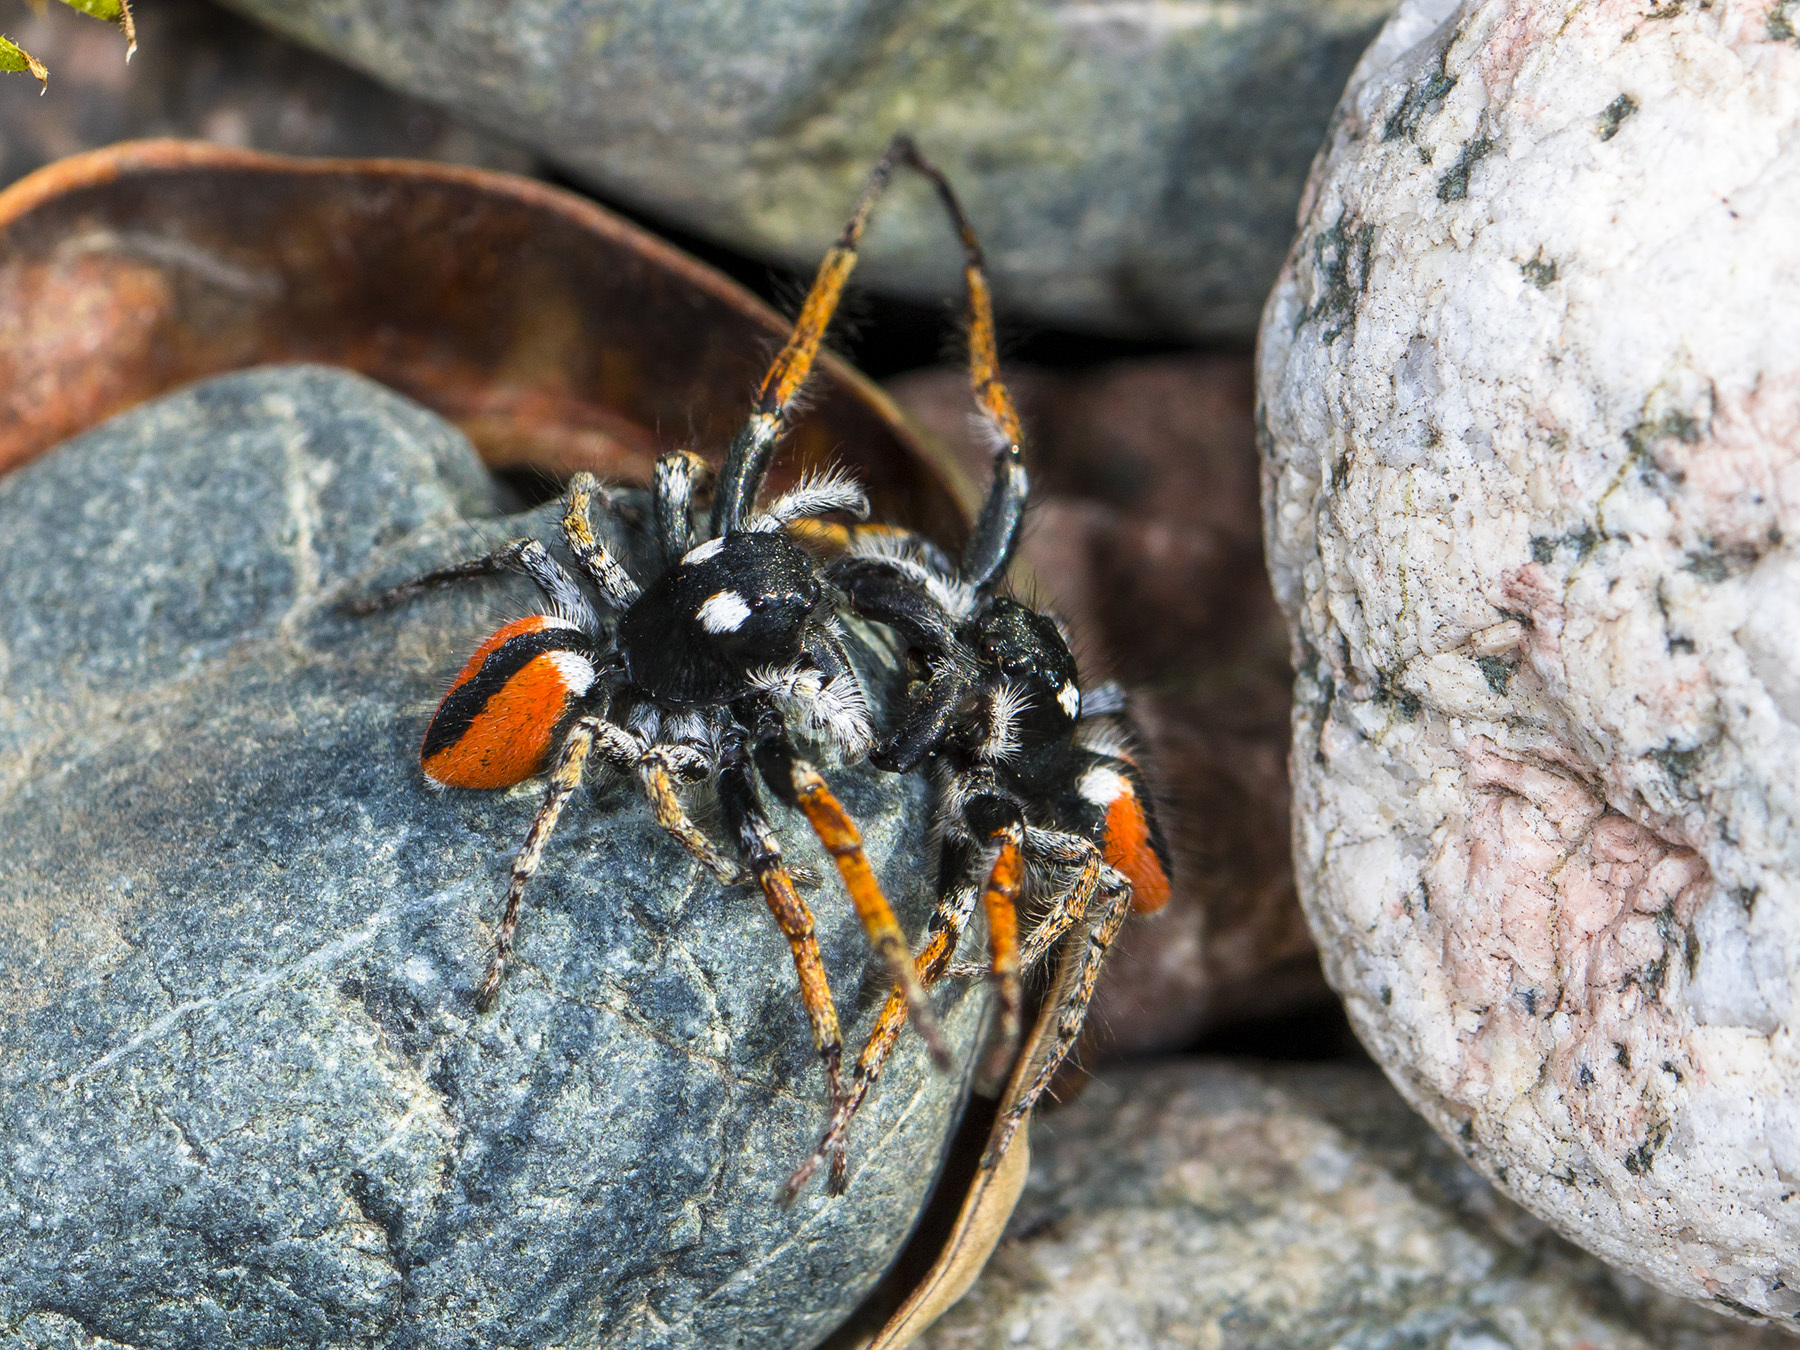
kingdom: Animalia
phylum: Arthropoda
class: Arachnida
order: Araneae
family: Salticidae
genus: Philaeus
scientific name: Philaeus chrysops
